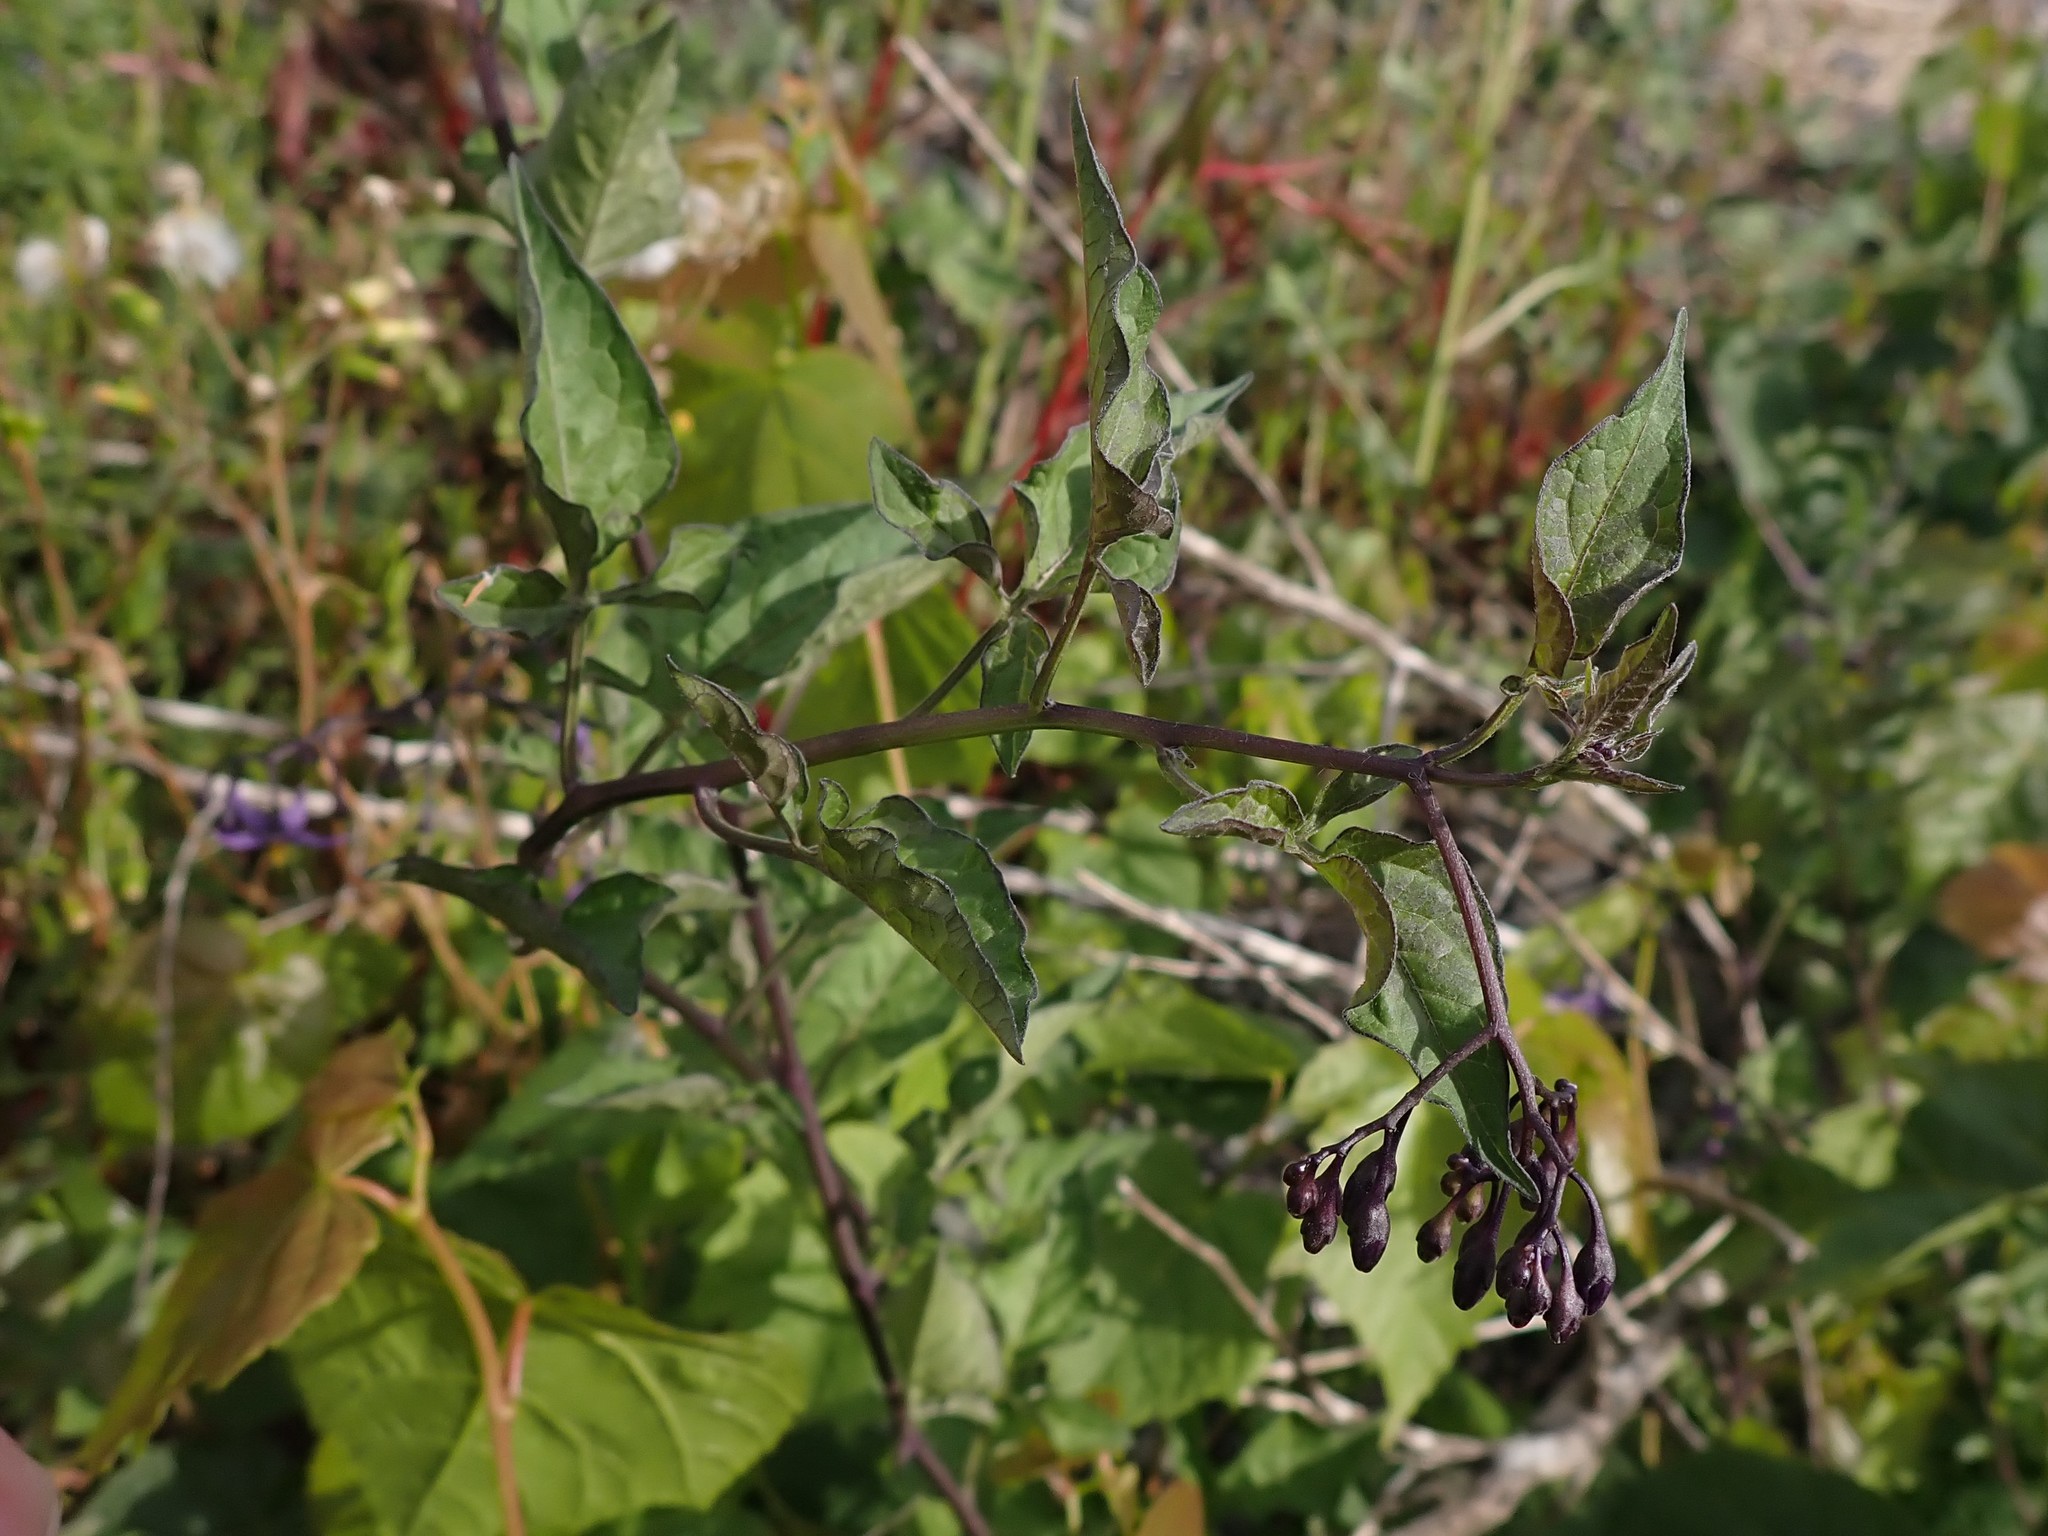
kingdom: Plantae
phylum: Tracheophyta
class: Magnoliopsida
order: Solanales
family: Solanaceae
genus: Solanum
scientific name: Solanum dulcamara
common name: Climbing nightshade
